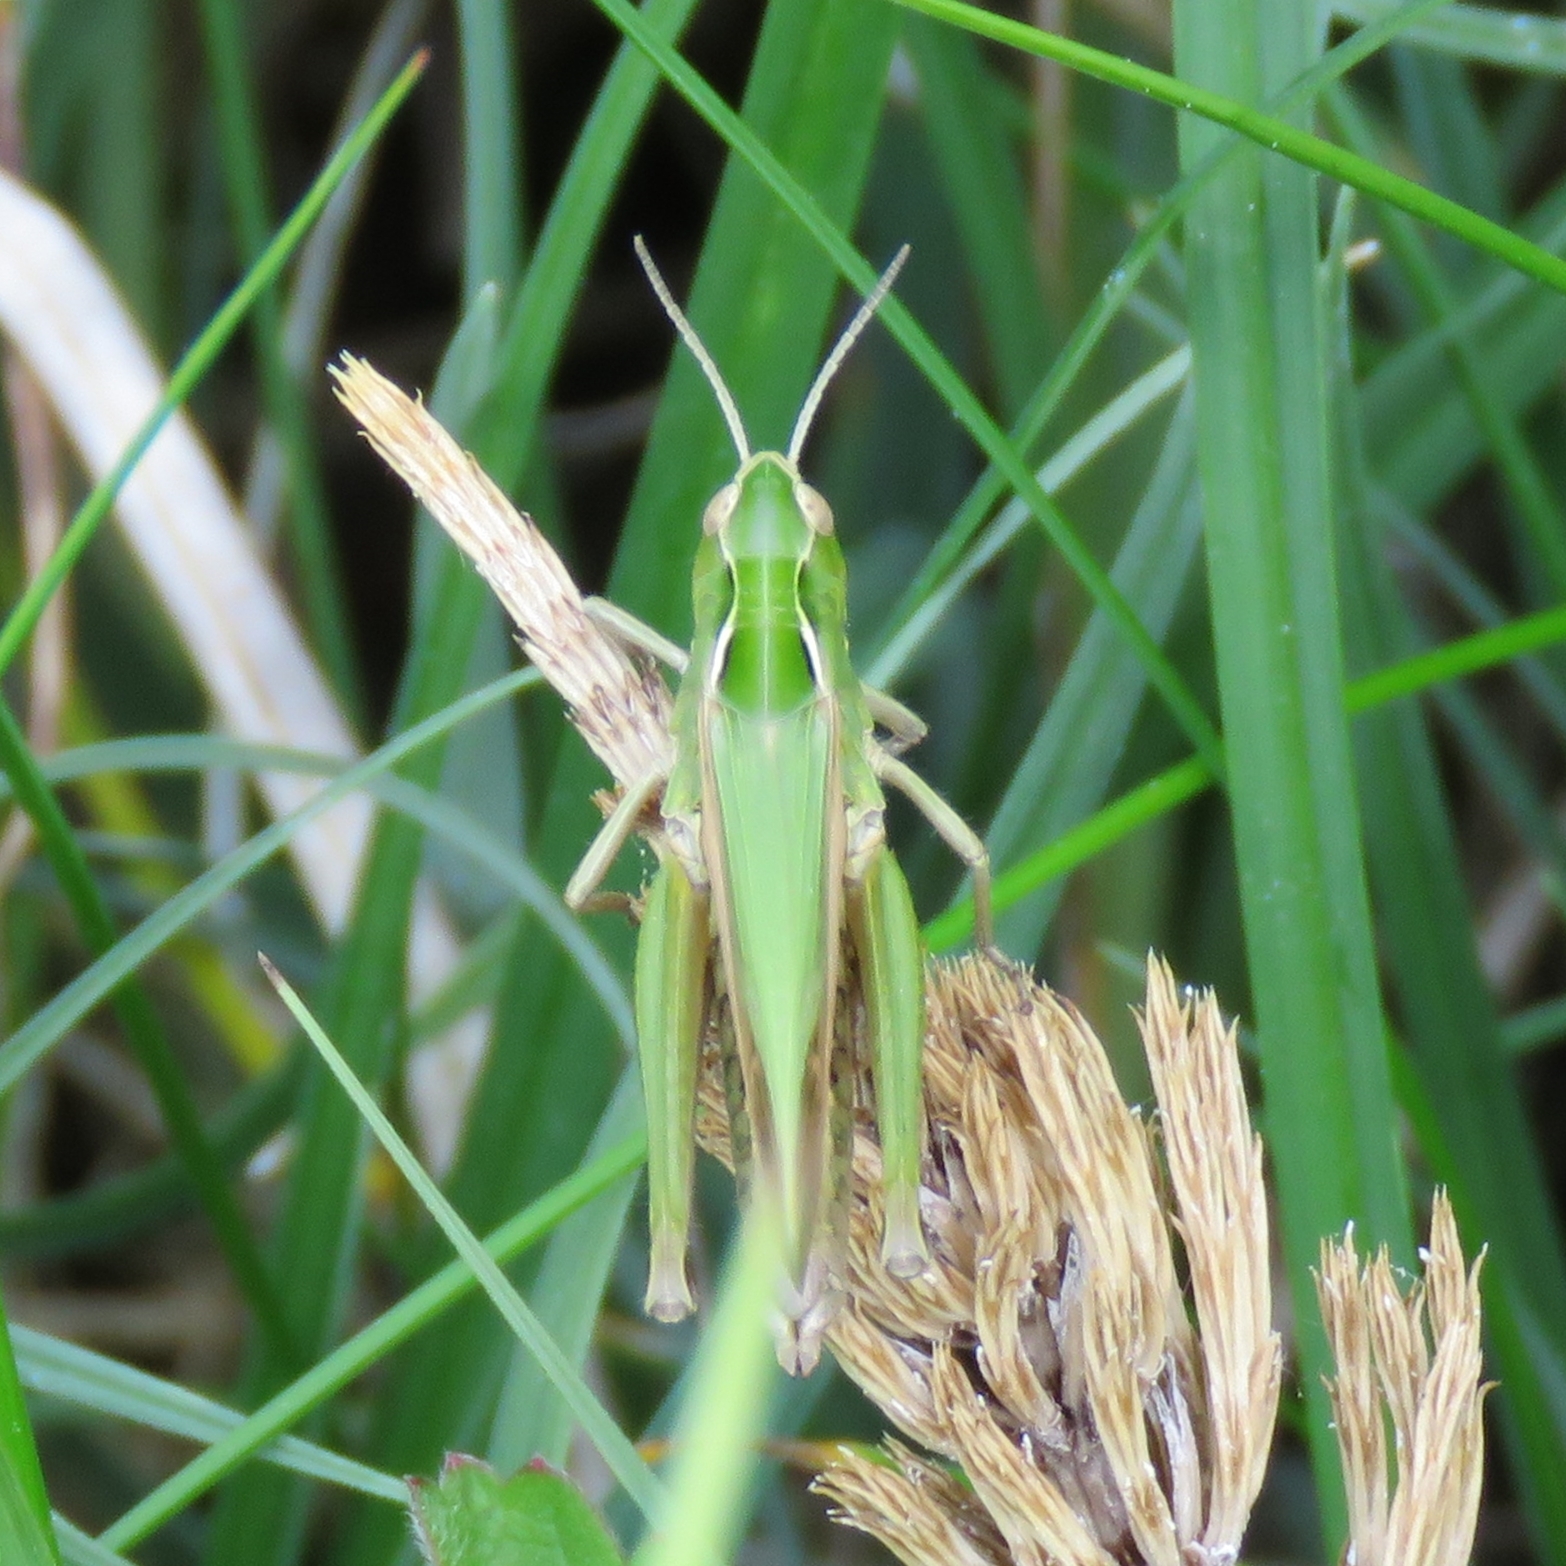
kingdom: Animalia
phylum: Arthropoda
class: Insecta
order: Orthoptera
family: Acrididae
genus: Omocestus
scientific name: Omocestus viridulus
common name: Common green grasshopper
